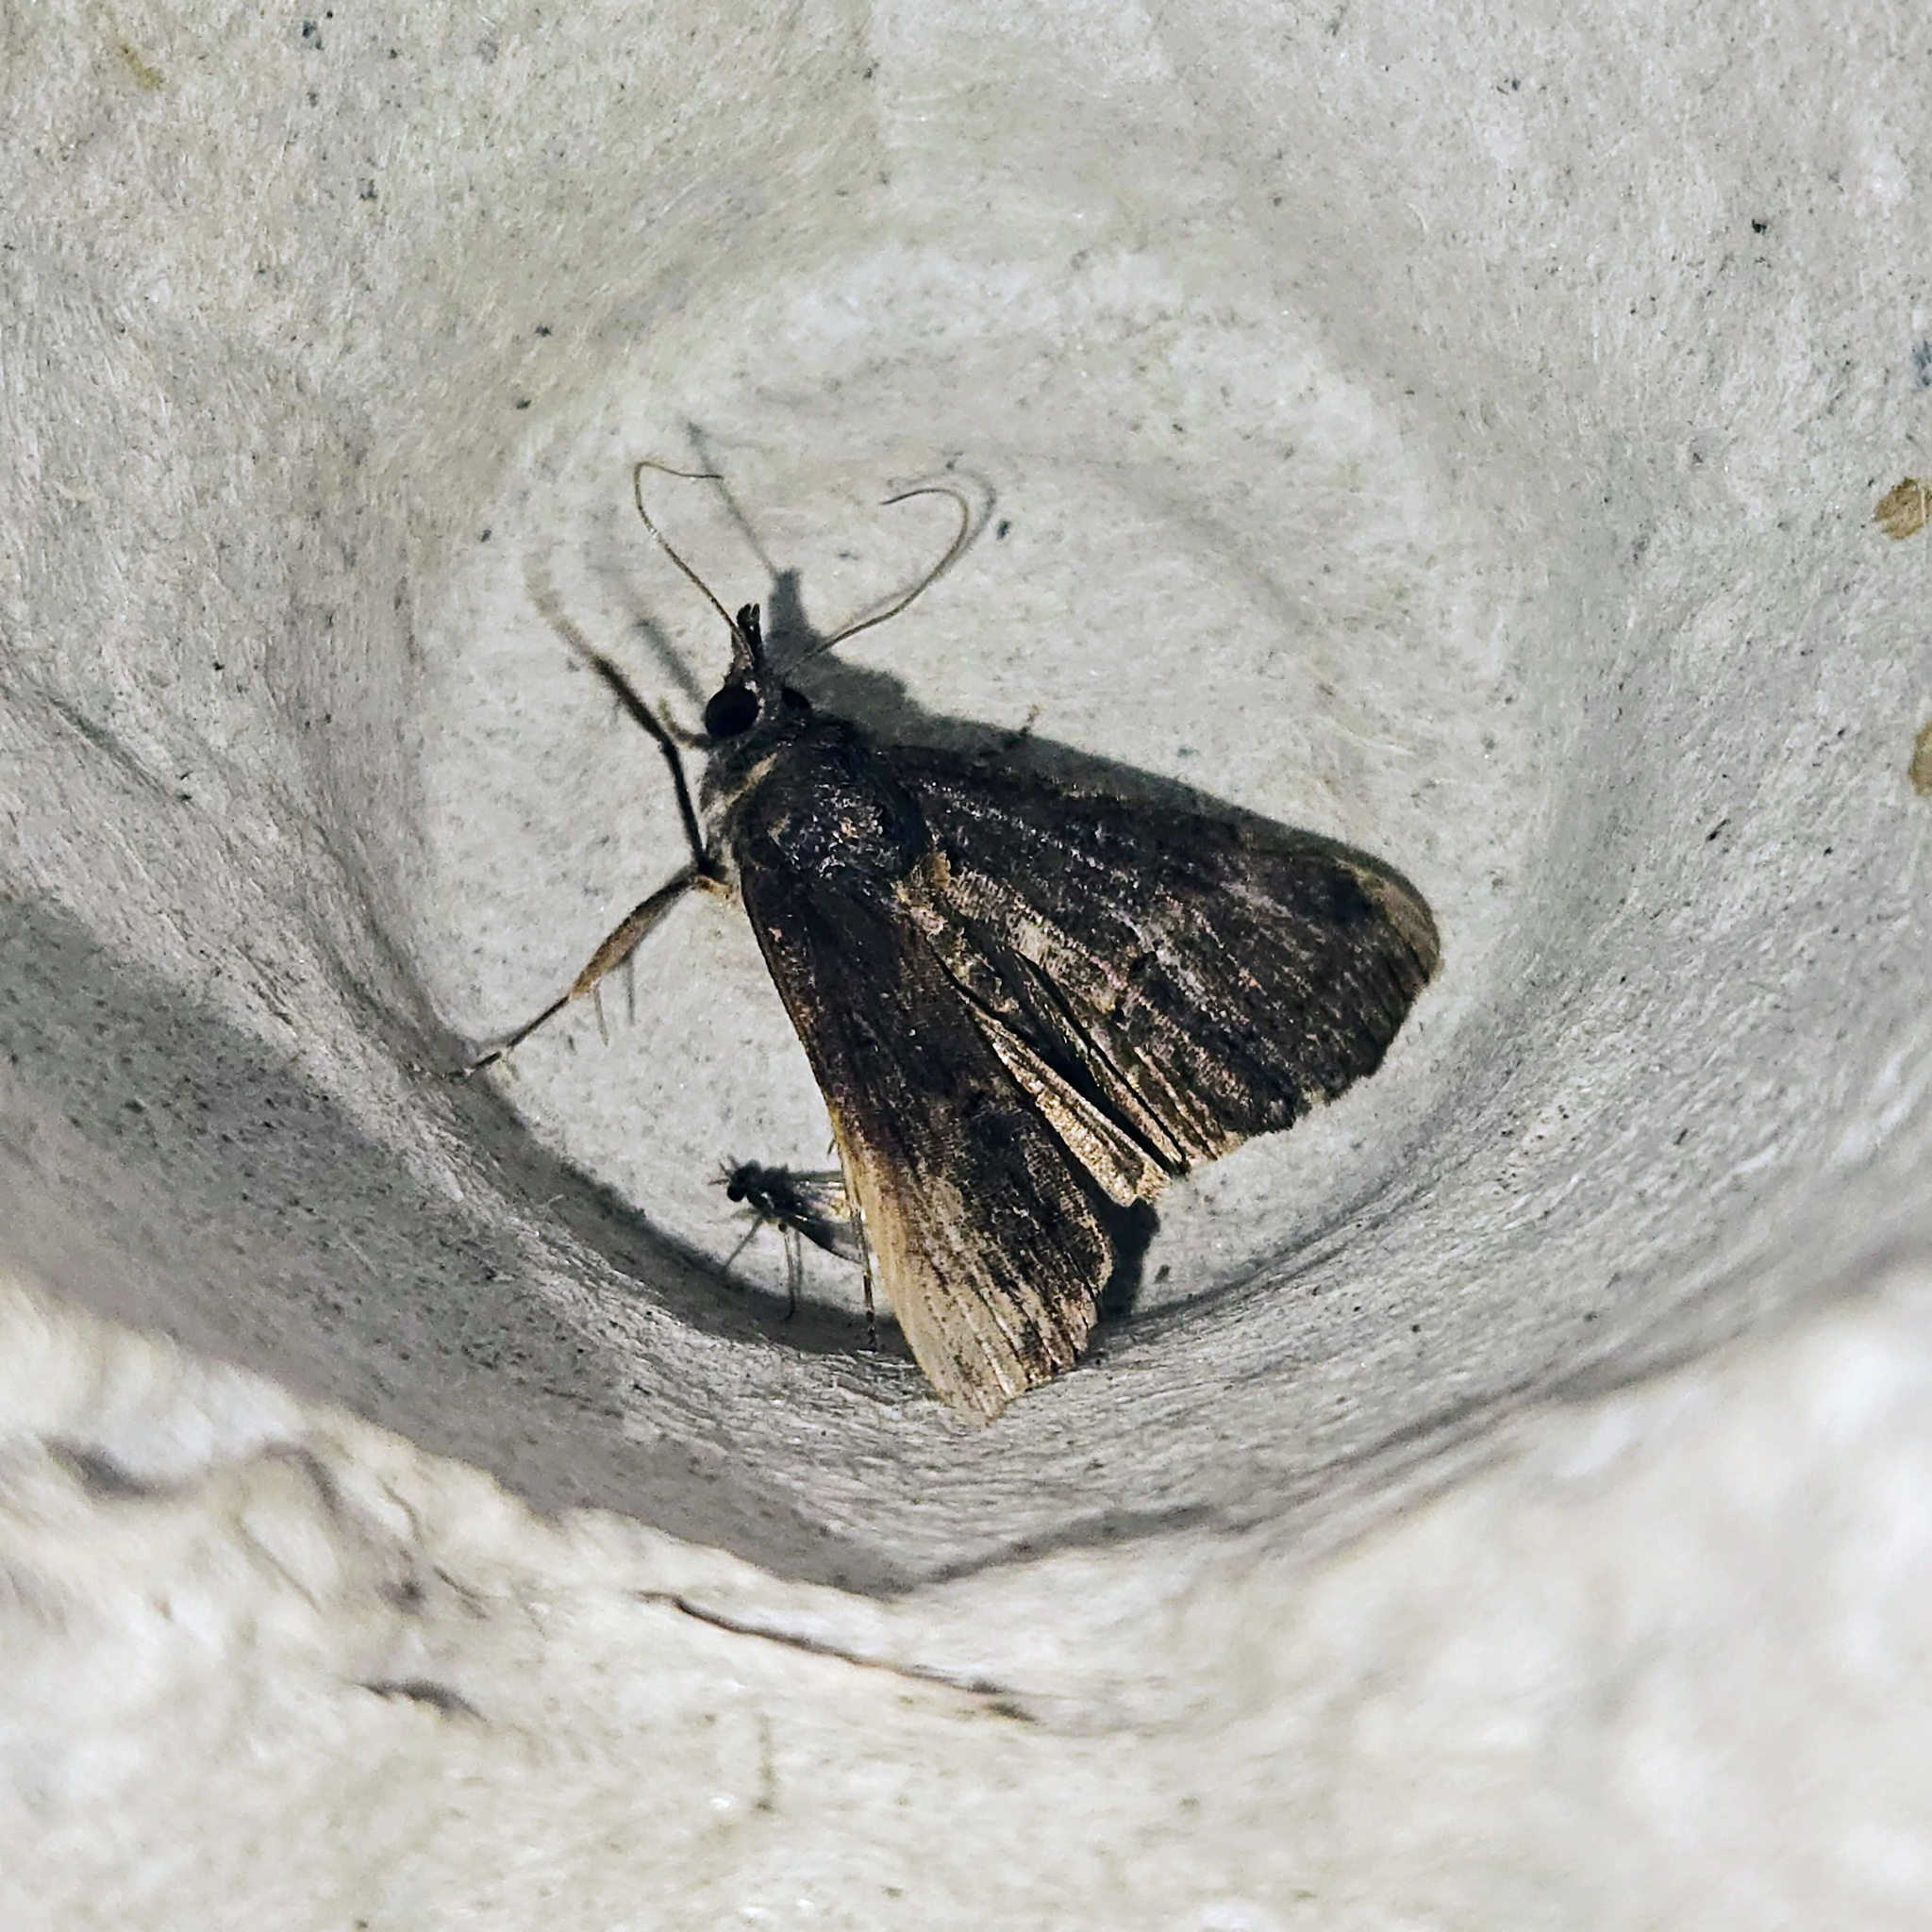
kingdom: Animalia
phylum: Arthropoda
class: Insecta
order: Lepidoptera
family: Erebidae
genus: Hypena
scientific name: Hypena scabra
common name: Green cloverworm
